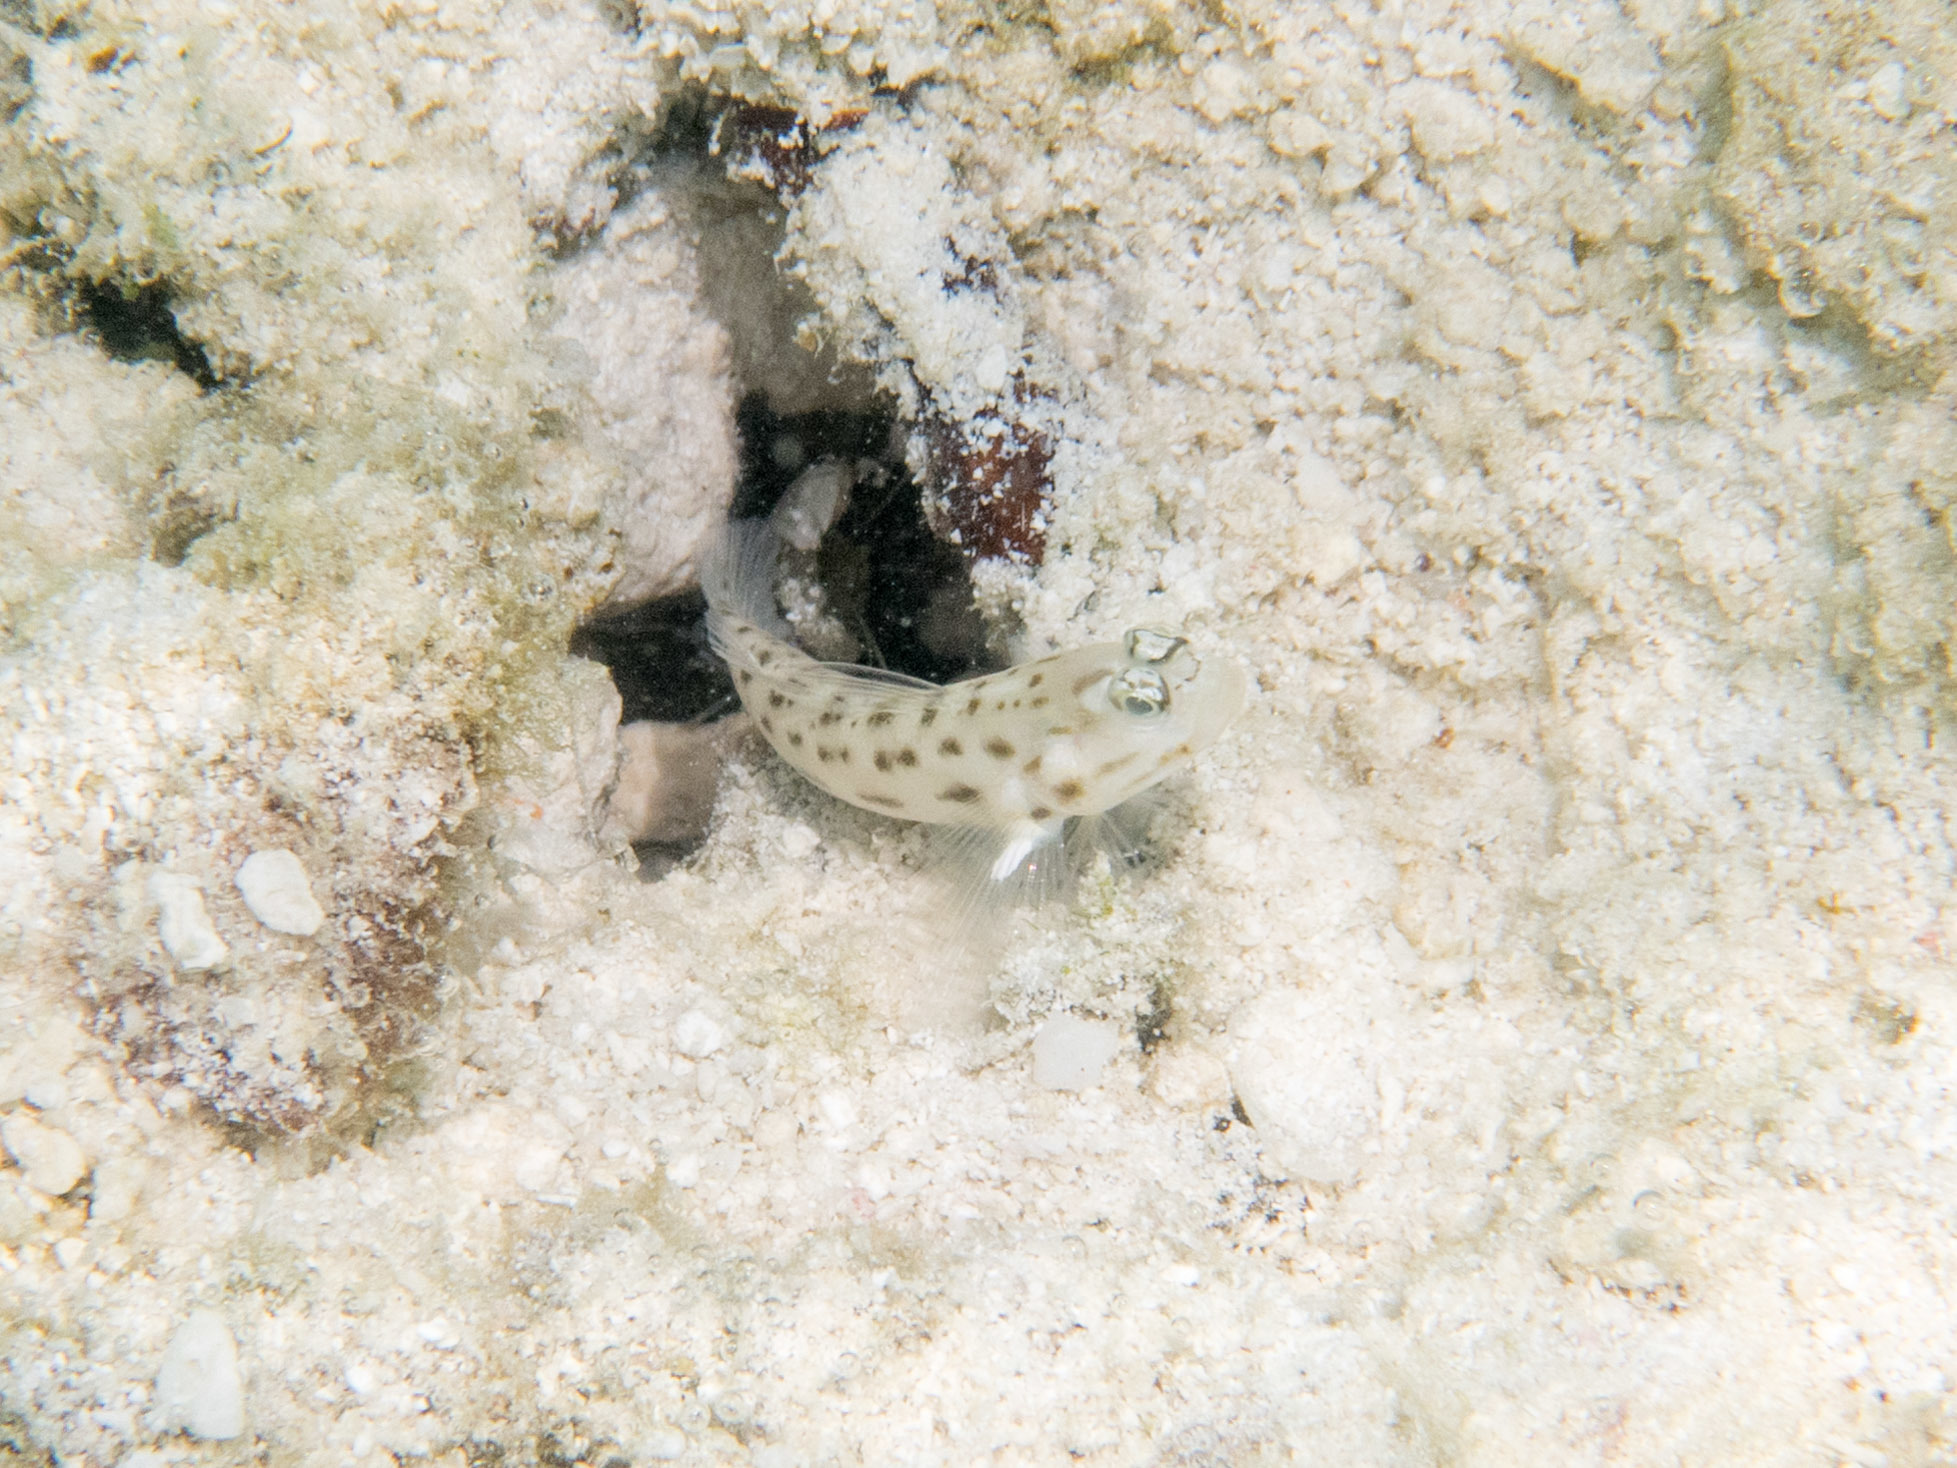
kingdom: Animalia
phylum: Chordata
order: Perciformes
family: Gobiidae
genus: Ctenogobiops
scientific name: Ctenogobiops feroculus
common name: Fierce shrimpgoby
